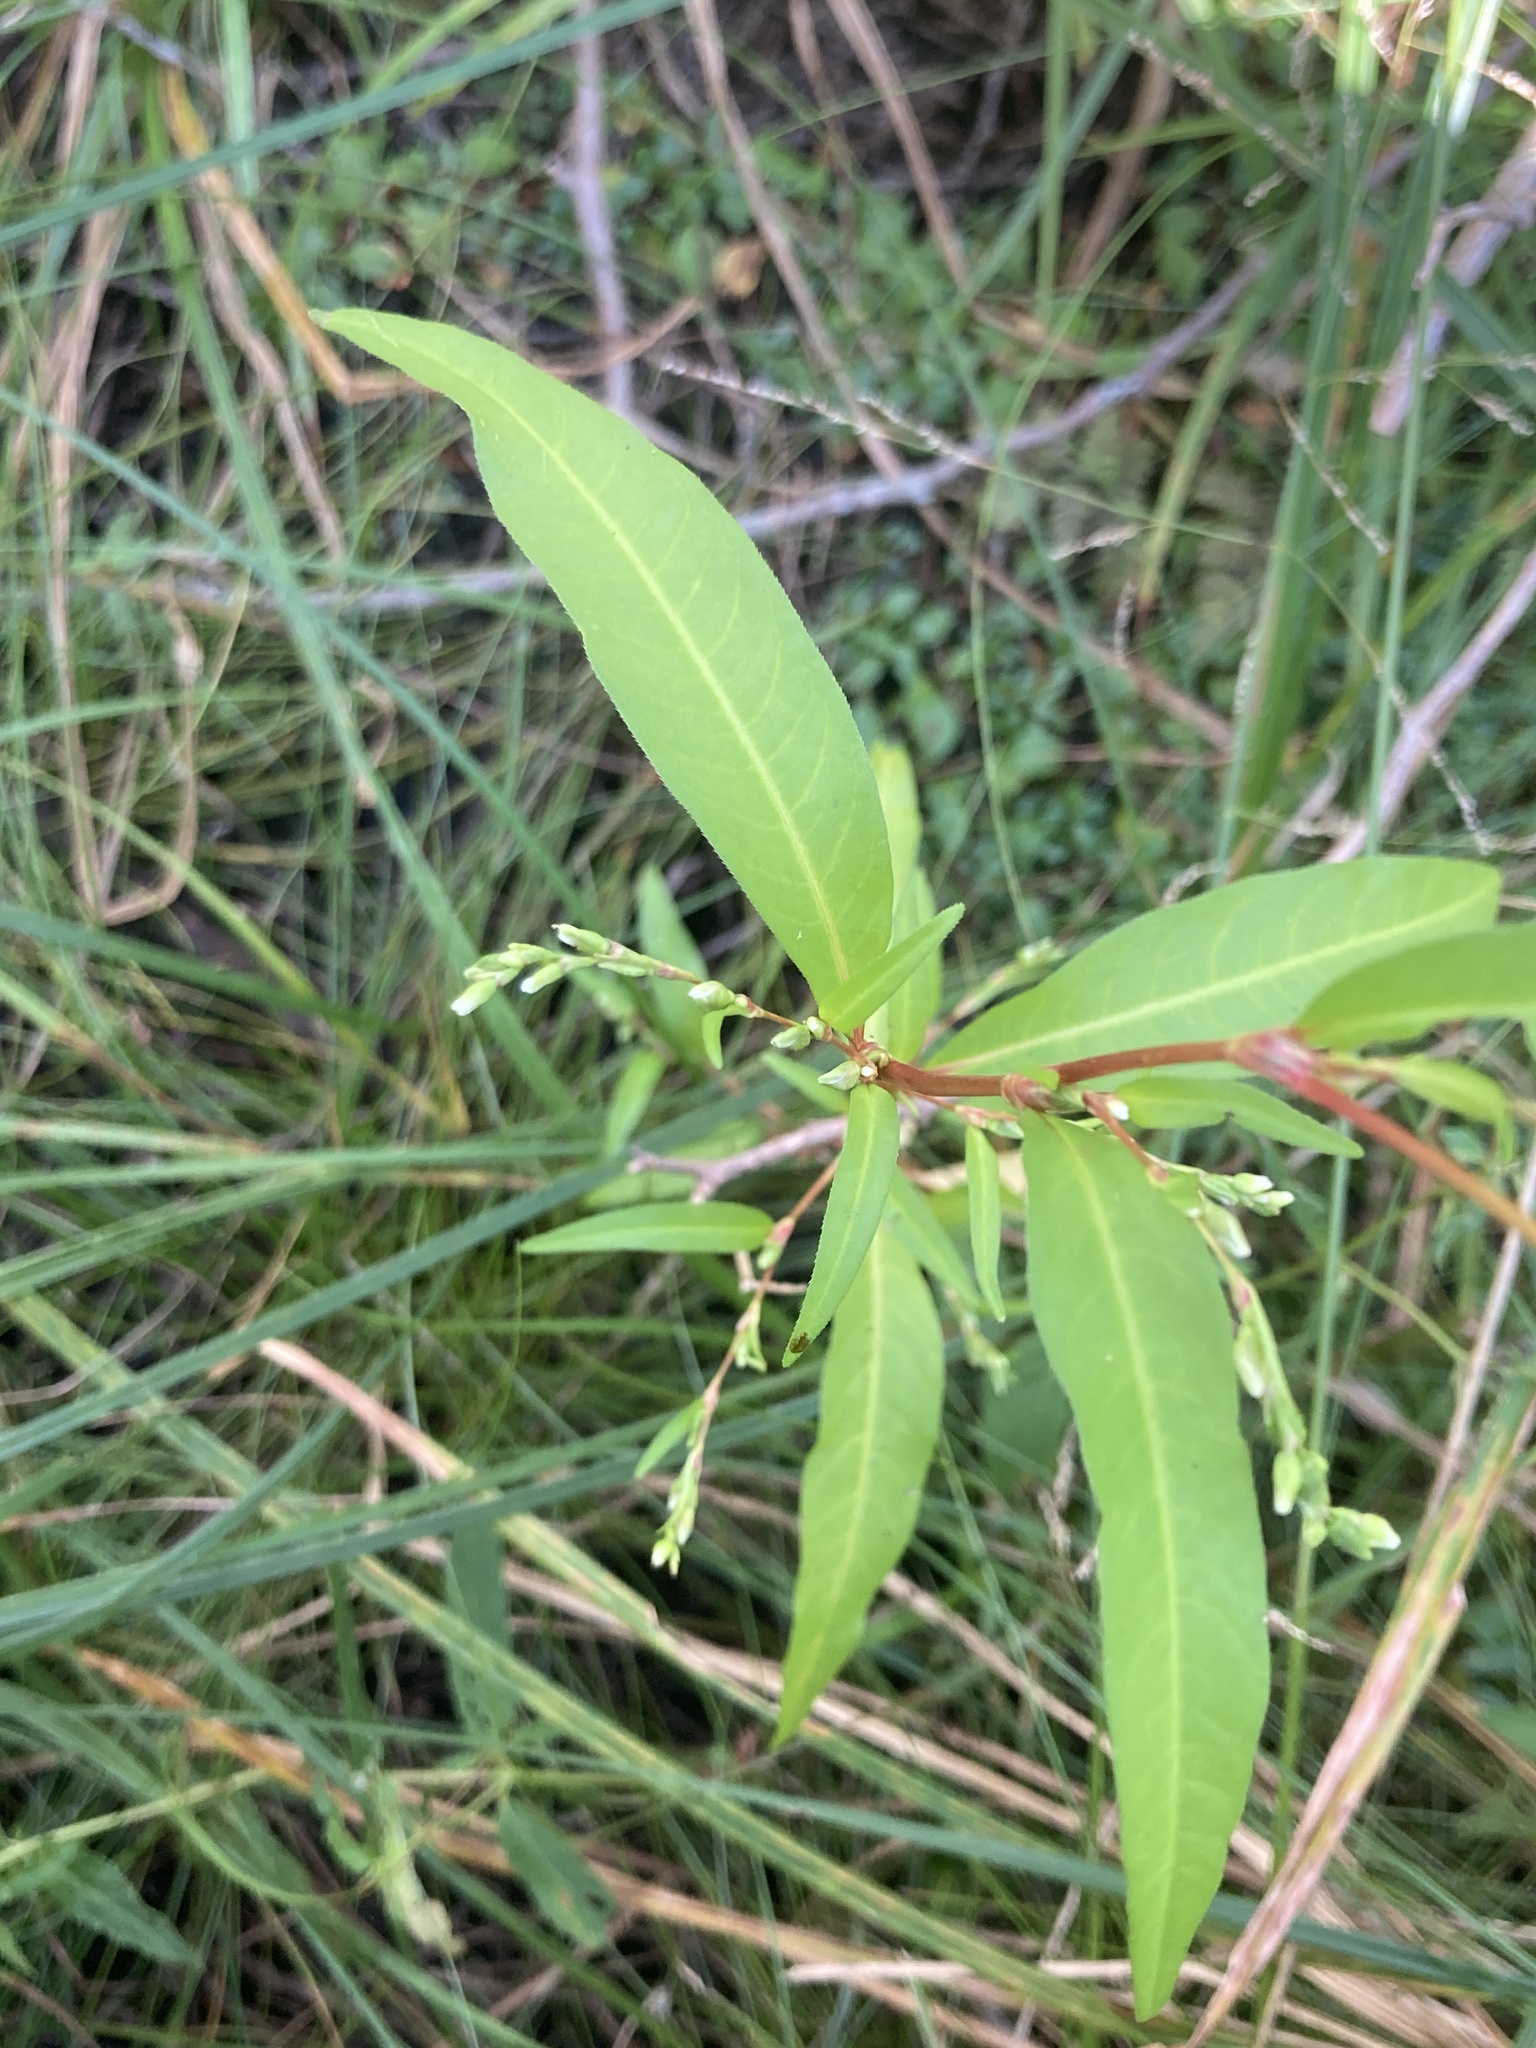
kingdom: Plantae
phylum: Tracheophyta
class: Magnoliopsida
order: Caryophyllales
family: Polygonaceae
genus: Persicaria
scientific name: Persicaria hydropiper
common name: Water-pepper
